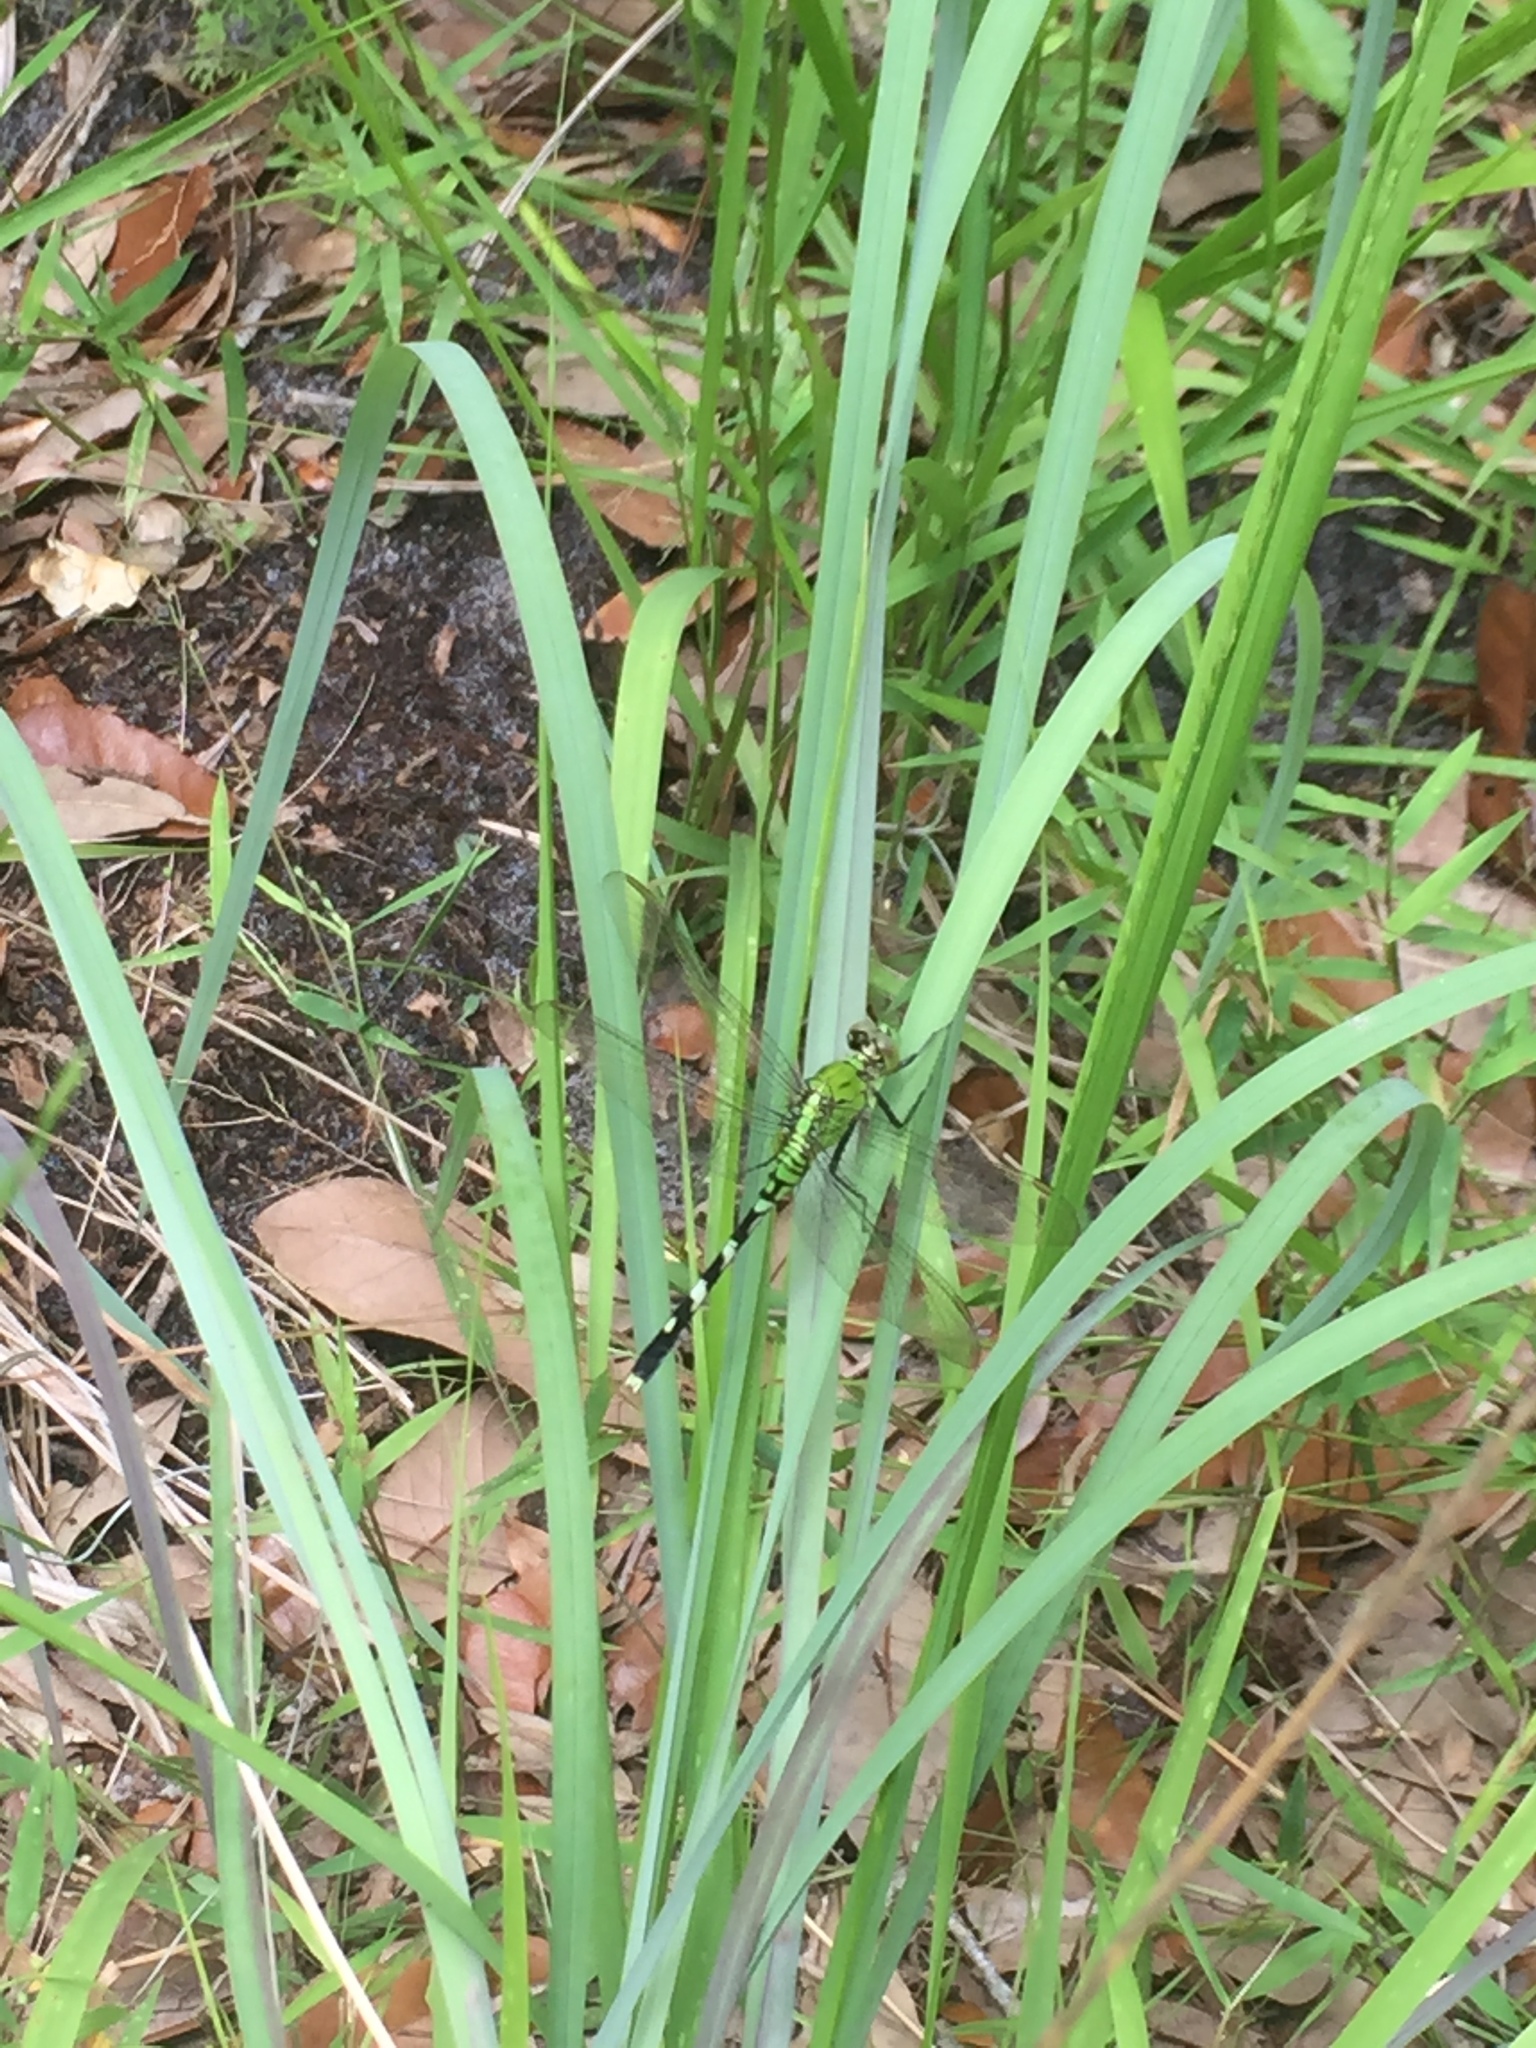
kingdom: Animalia
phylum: Arthropoda
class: Insecta
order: Odonata
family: Libellulidae
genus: Erythemis
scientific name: Erythemis simplicicollis
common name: Eastern pondhawk
